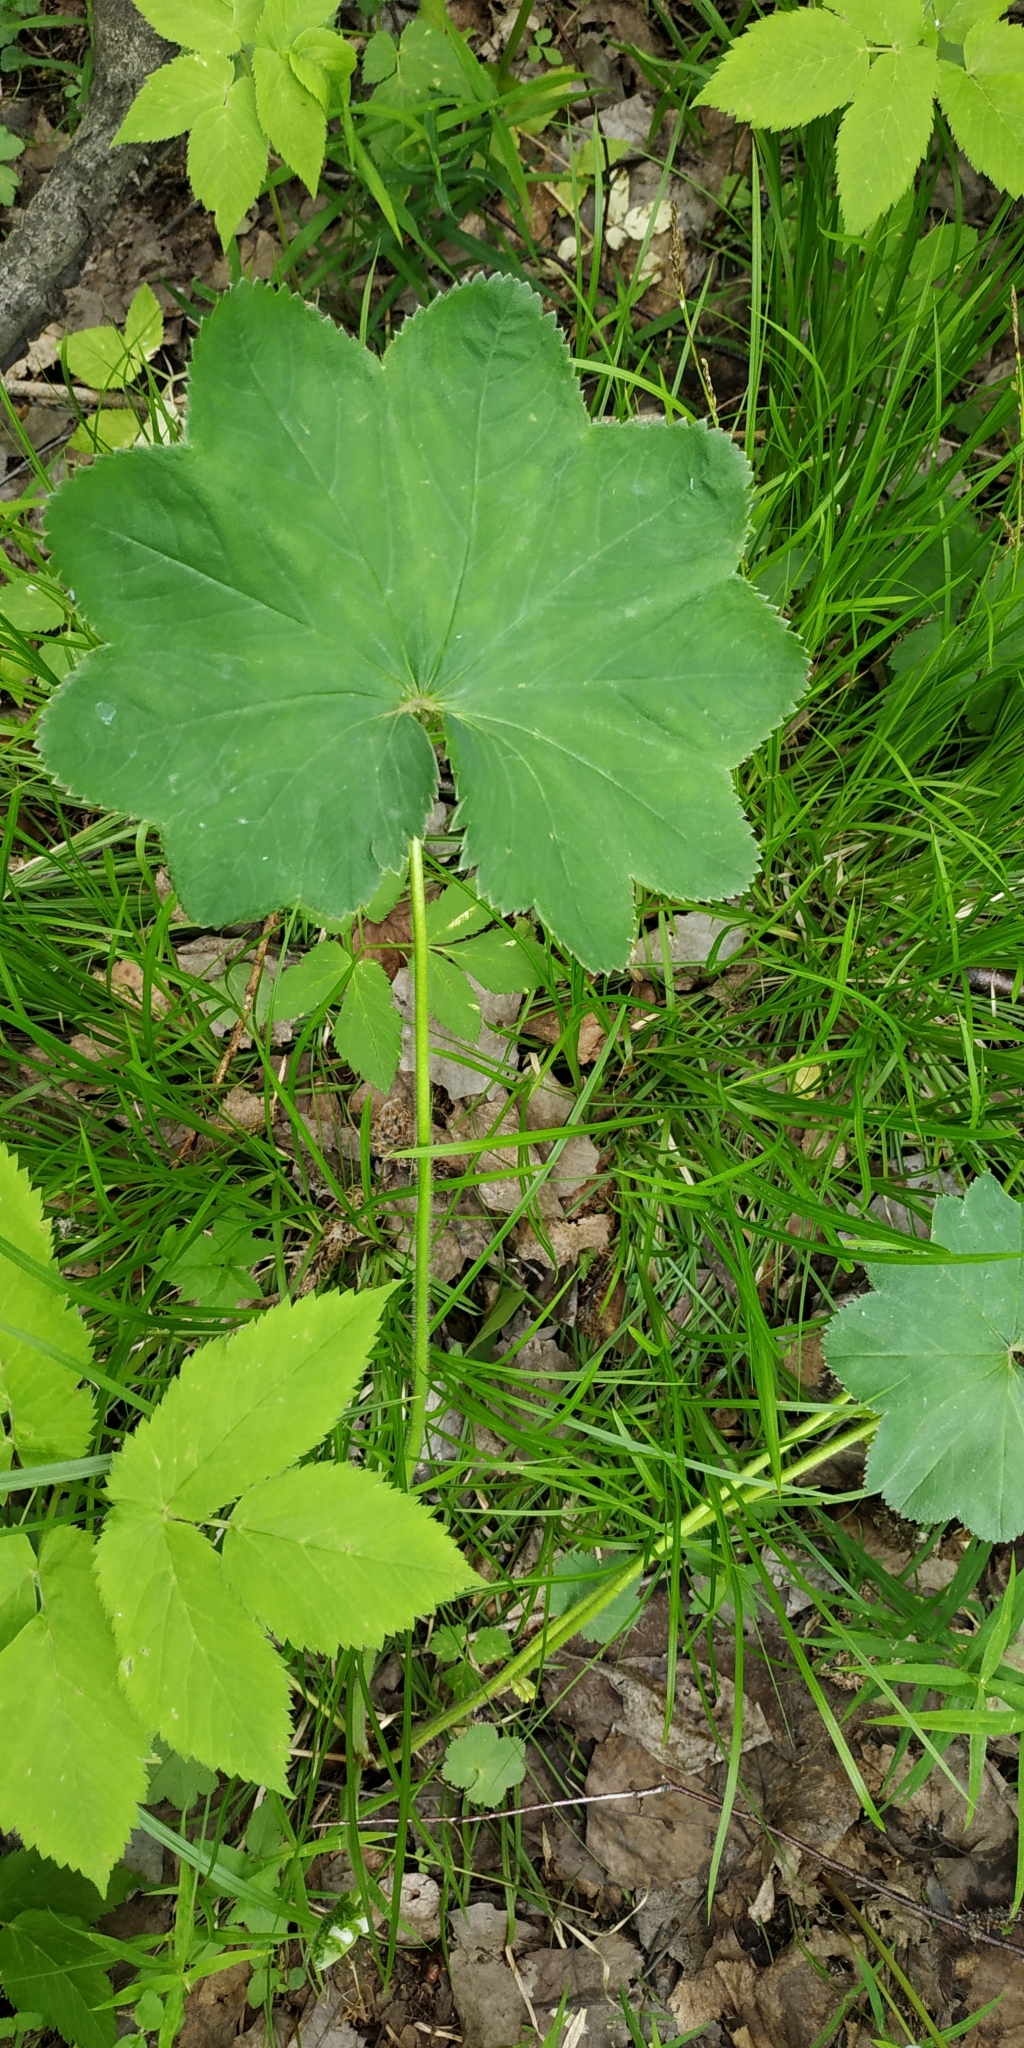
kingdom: Plantae
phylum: Tracheophyta
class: Magnoliopsida
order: Rosales
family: Rosaceae
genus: Alchemilla
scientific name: Alchemilla lindbergiana
